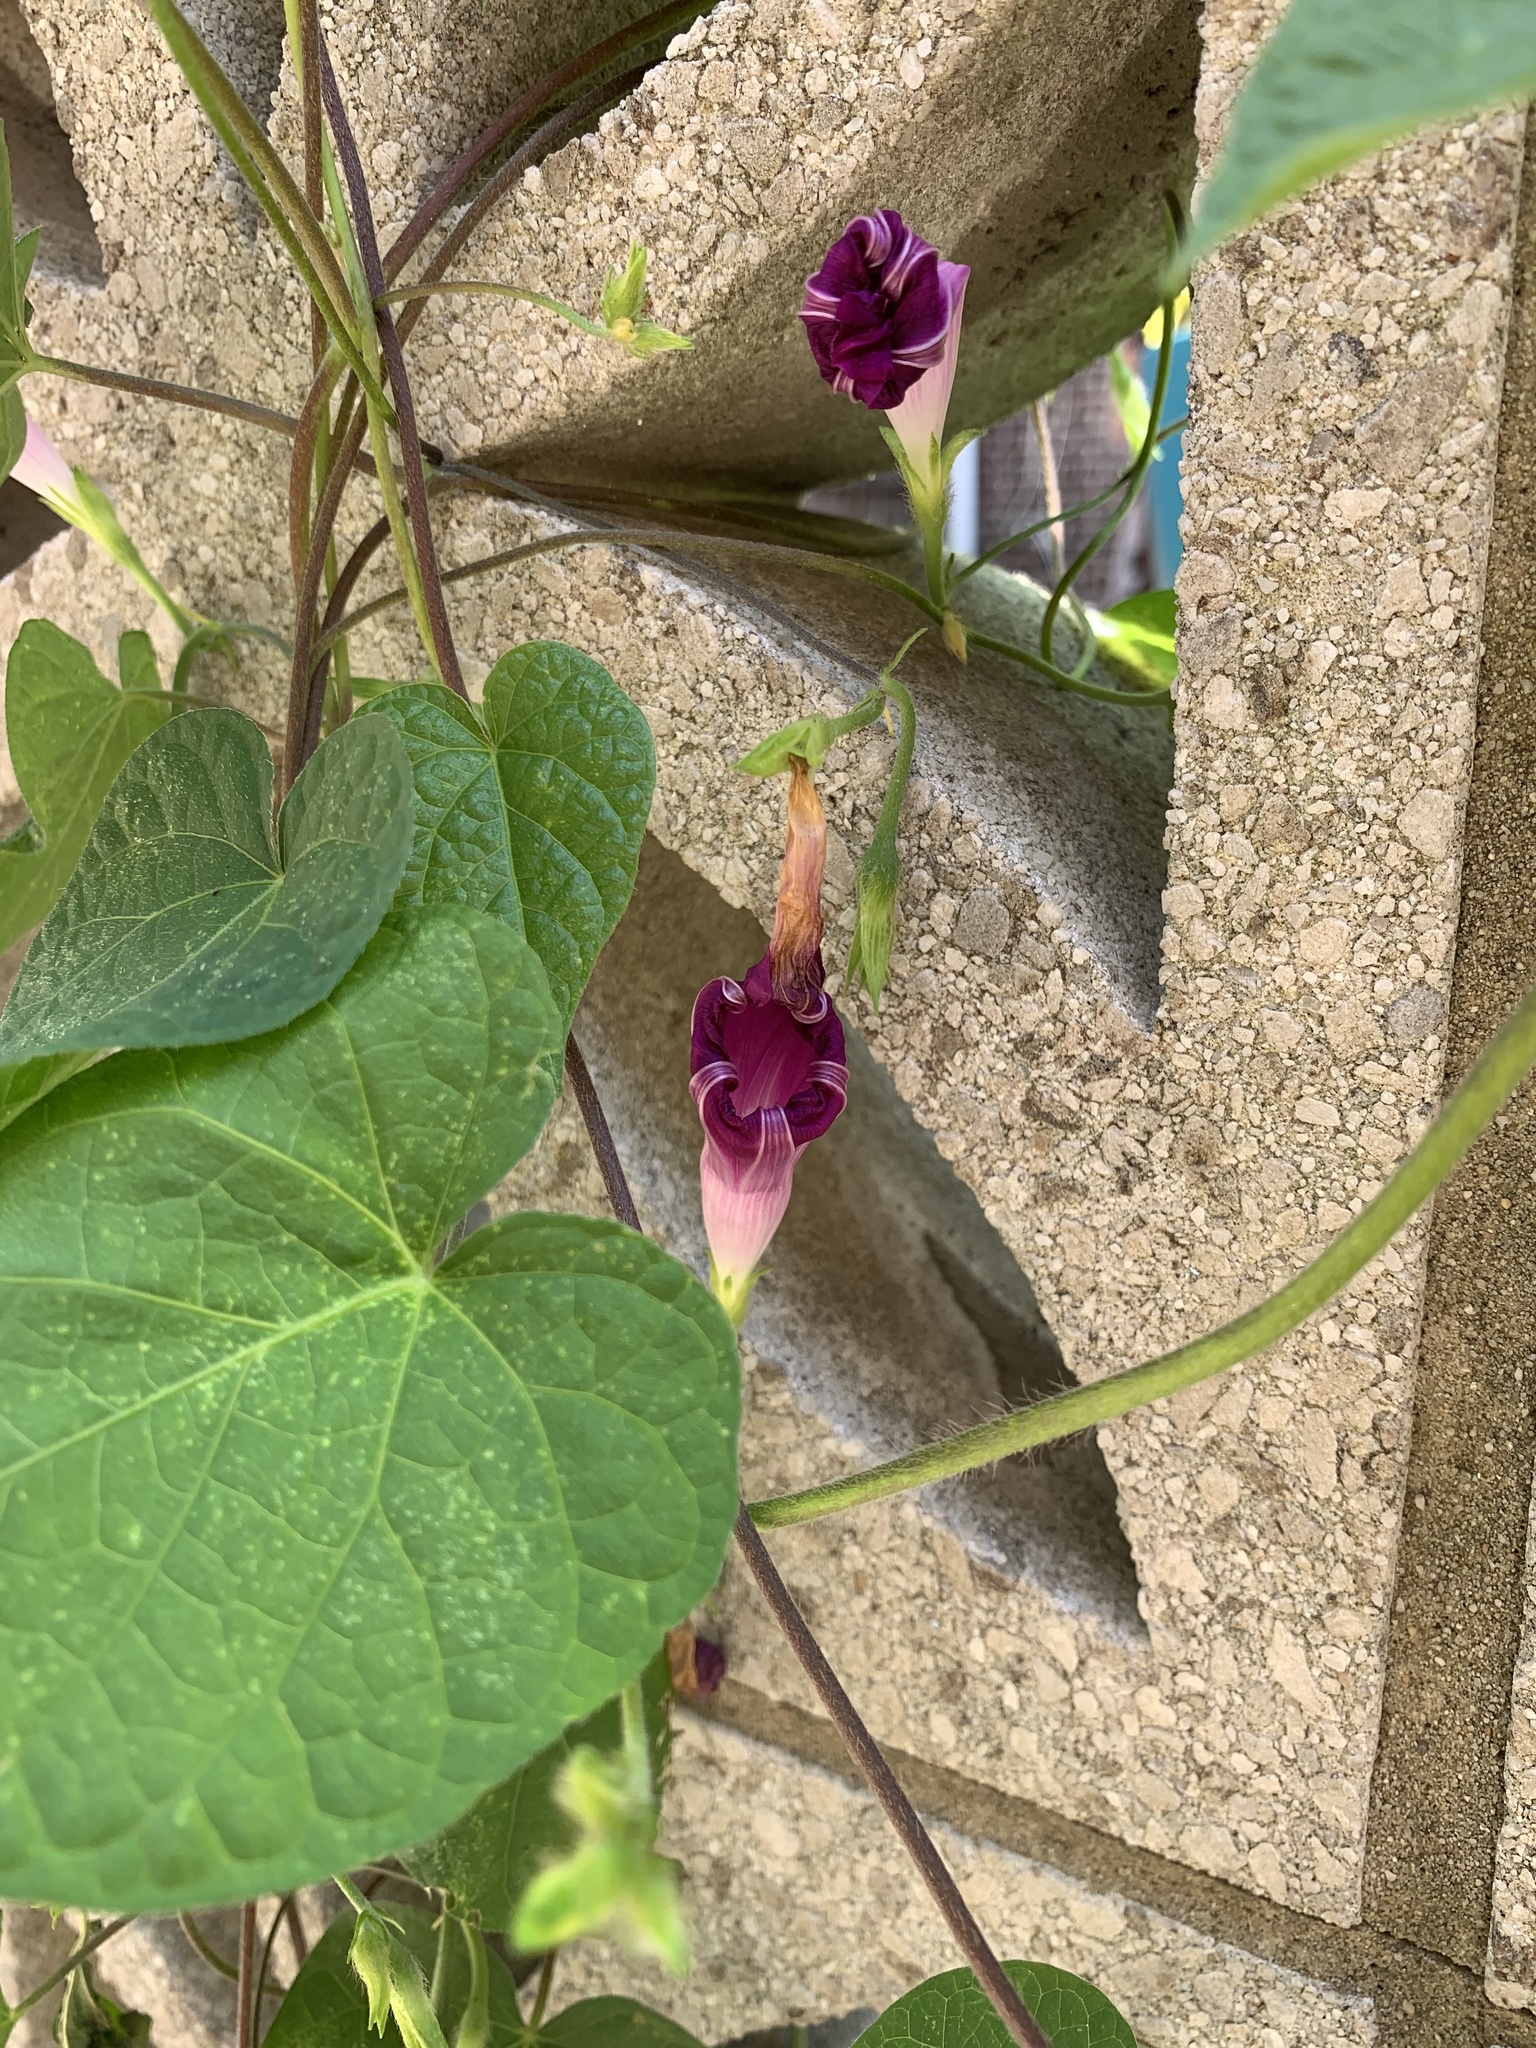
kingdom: Plantae
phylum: Tracheophyta
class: Magnoliopsida
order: Solanales
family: Convolvulaceae
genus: Ipomoea
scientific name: Ipomoea purpurea
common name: Common morning-glory
